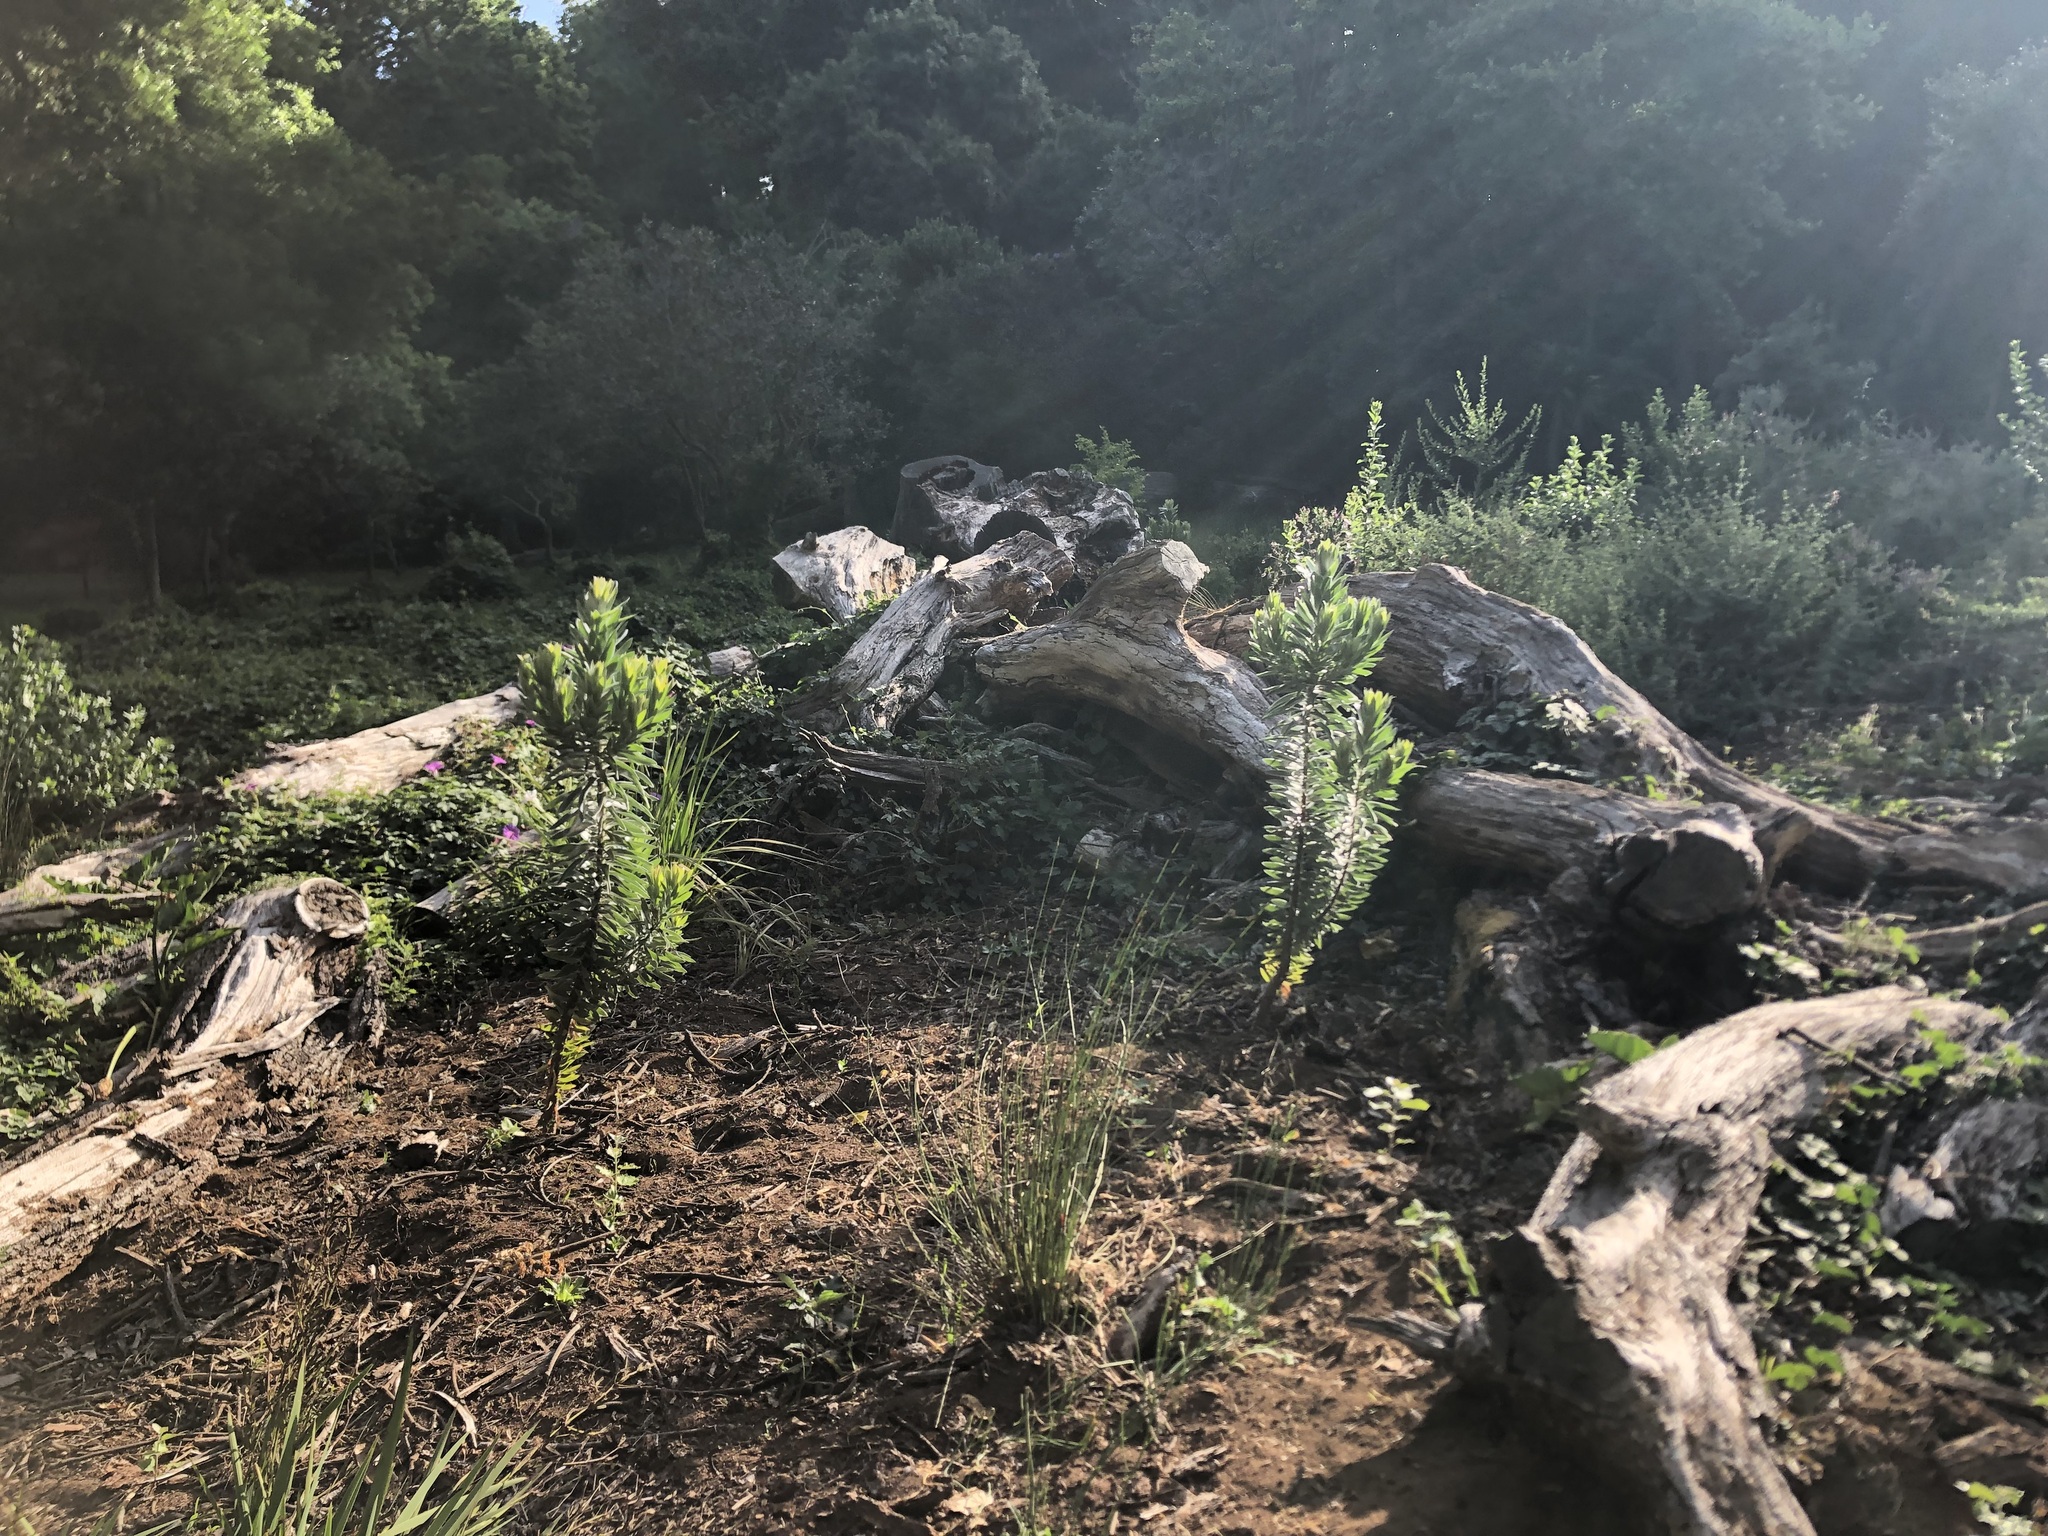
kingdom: Plantae
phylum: Tracheophyta
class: Magnoliopsida
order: Proteales
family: Proteaceae
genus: Leucadendron
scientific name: Leucadendron argenteum
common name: Cape silver tree
